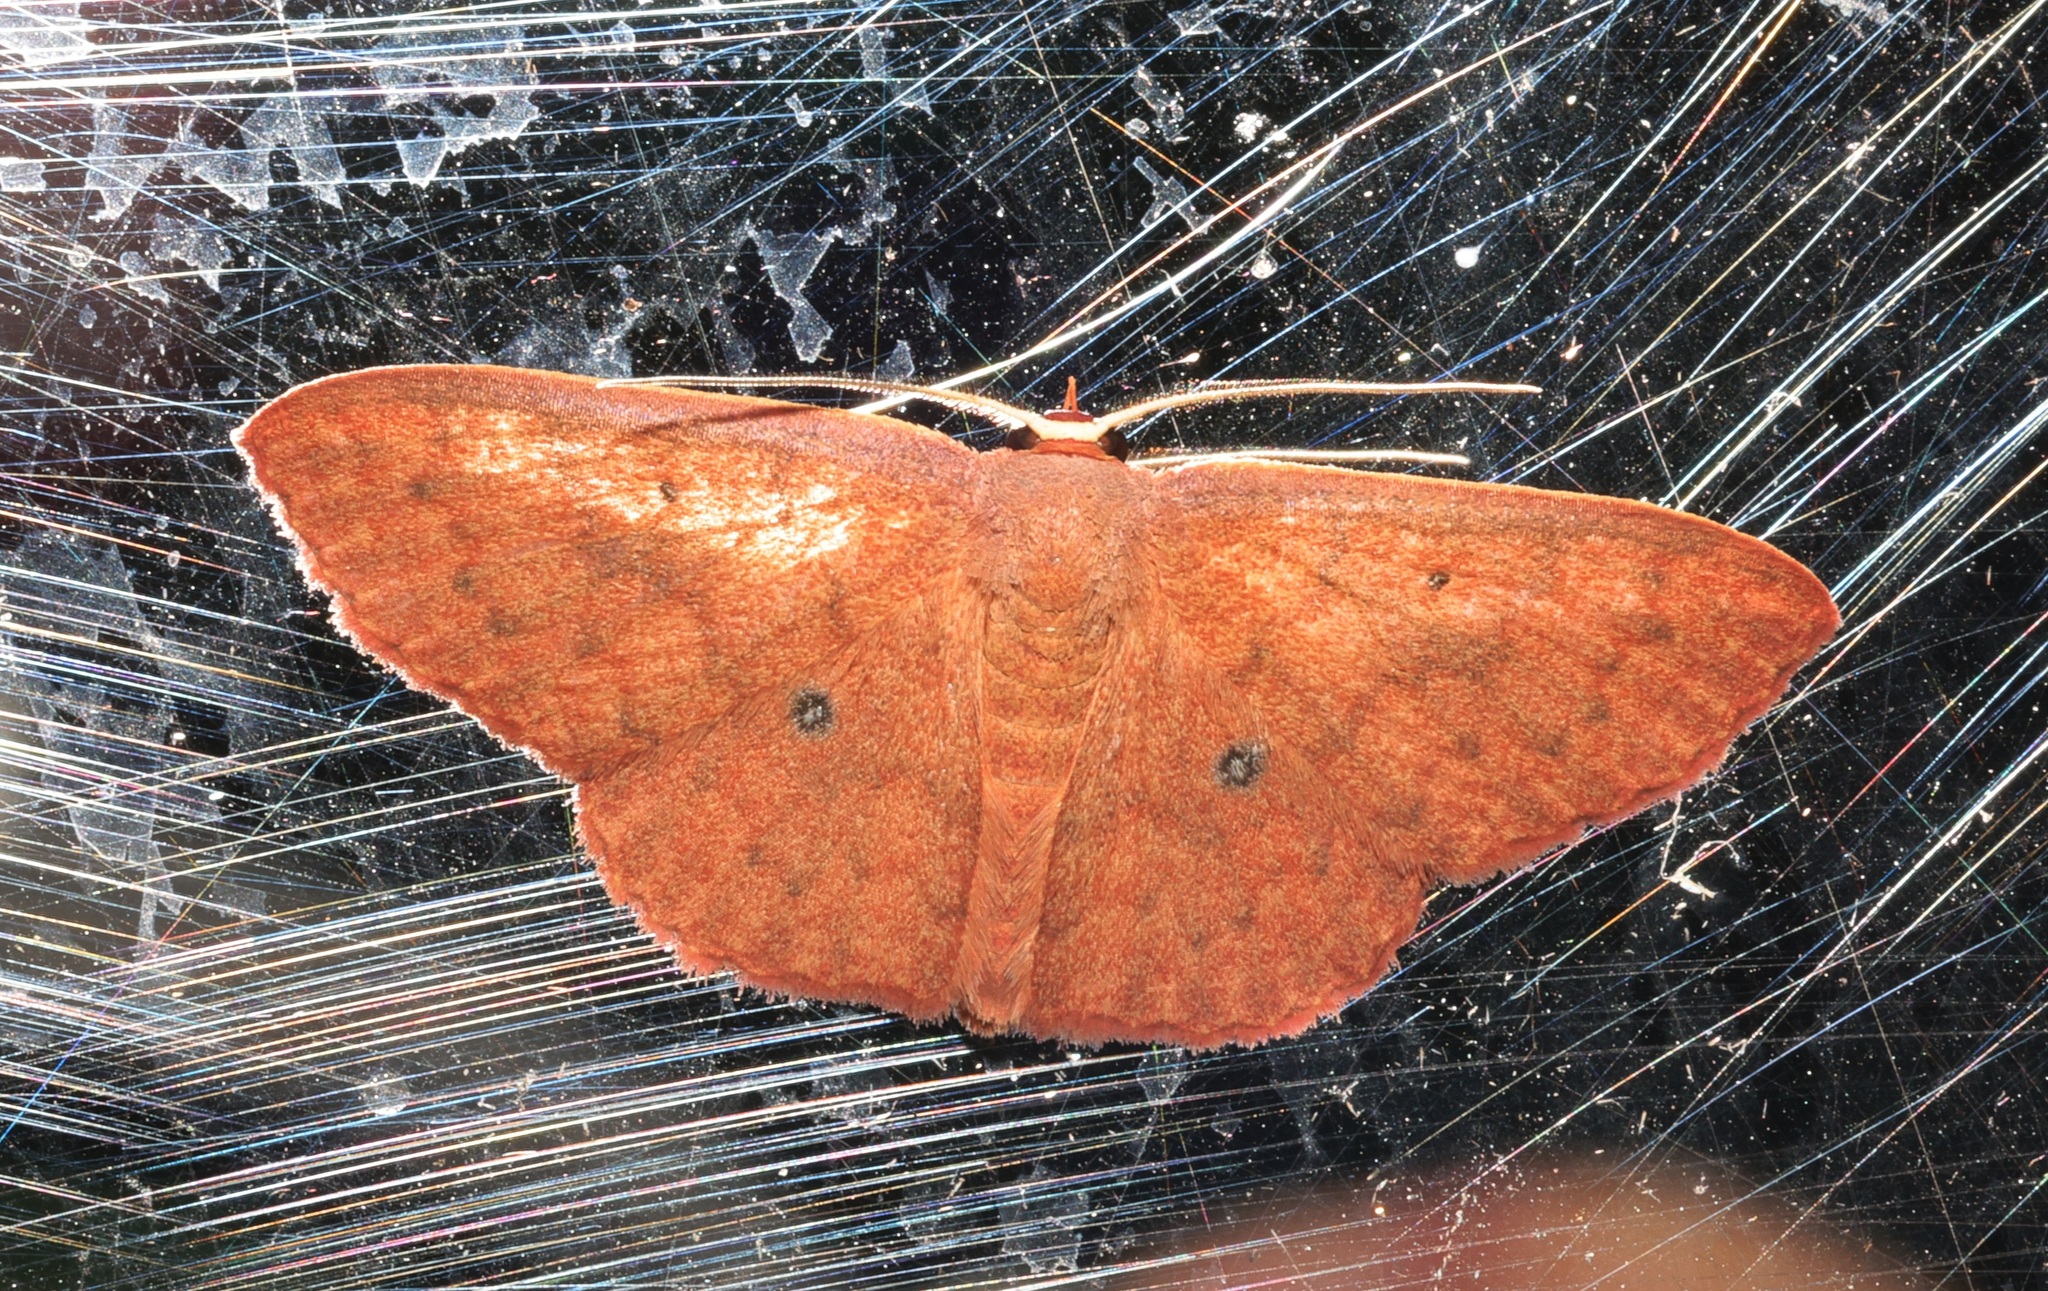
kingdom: Animalia
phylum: Arthropoda
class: Insecta
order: Lepidoptera
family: Geometridae
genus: Organopoda
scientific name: Organopoda carnearia
